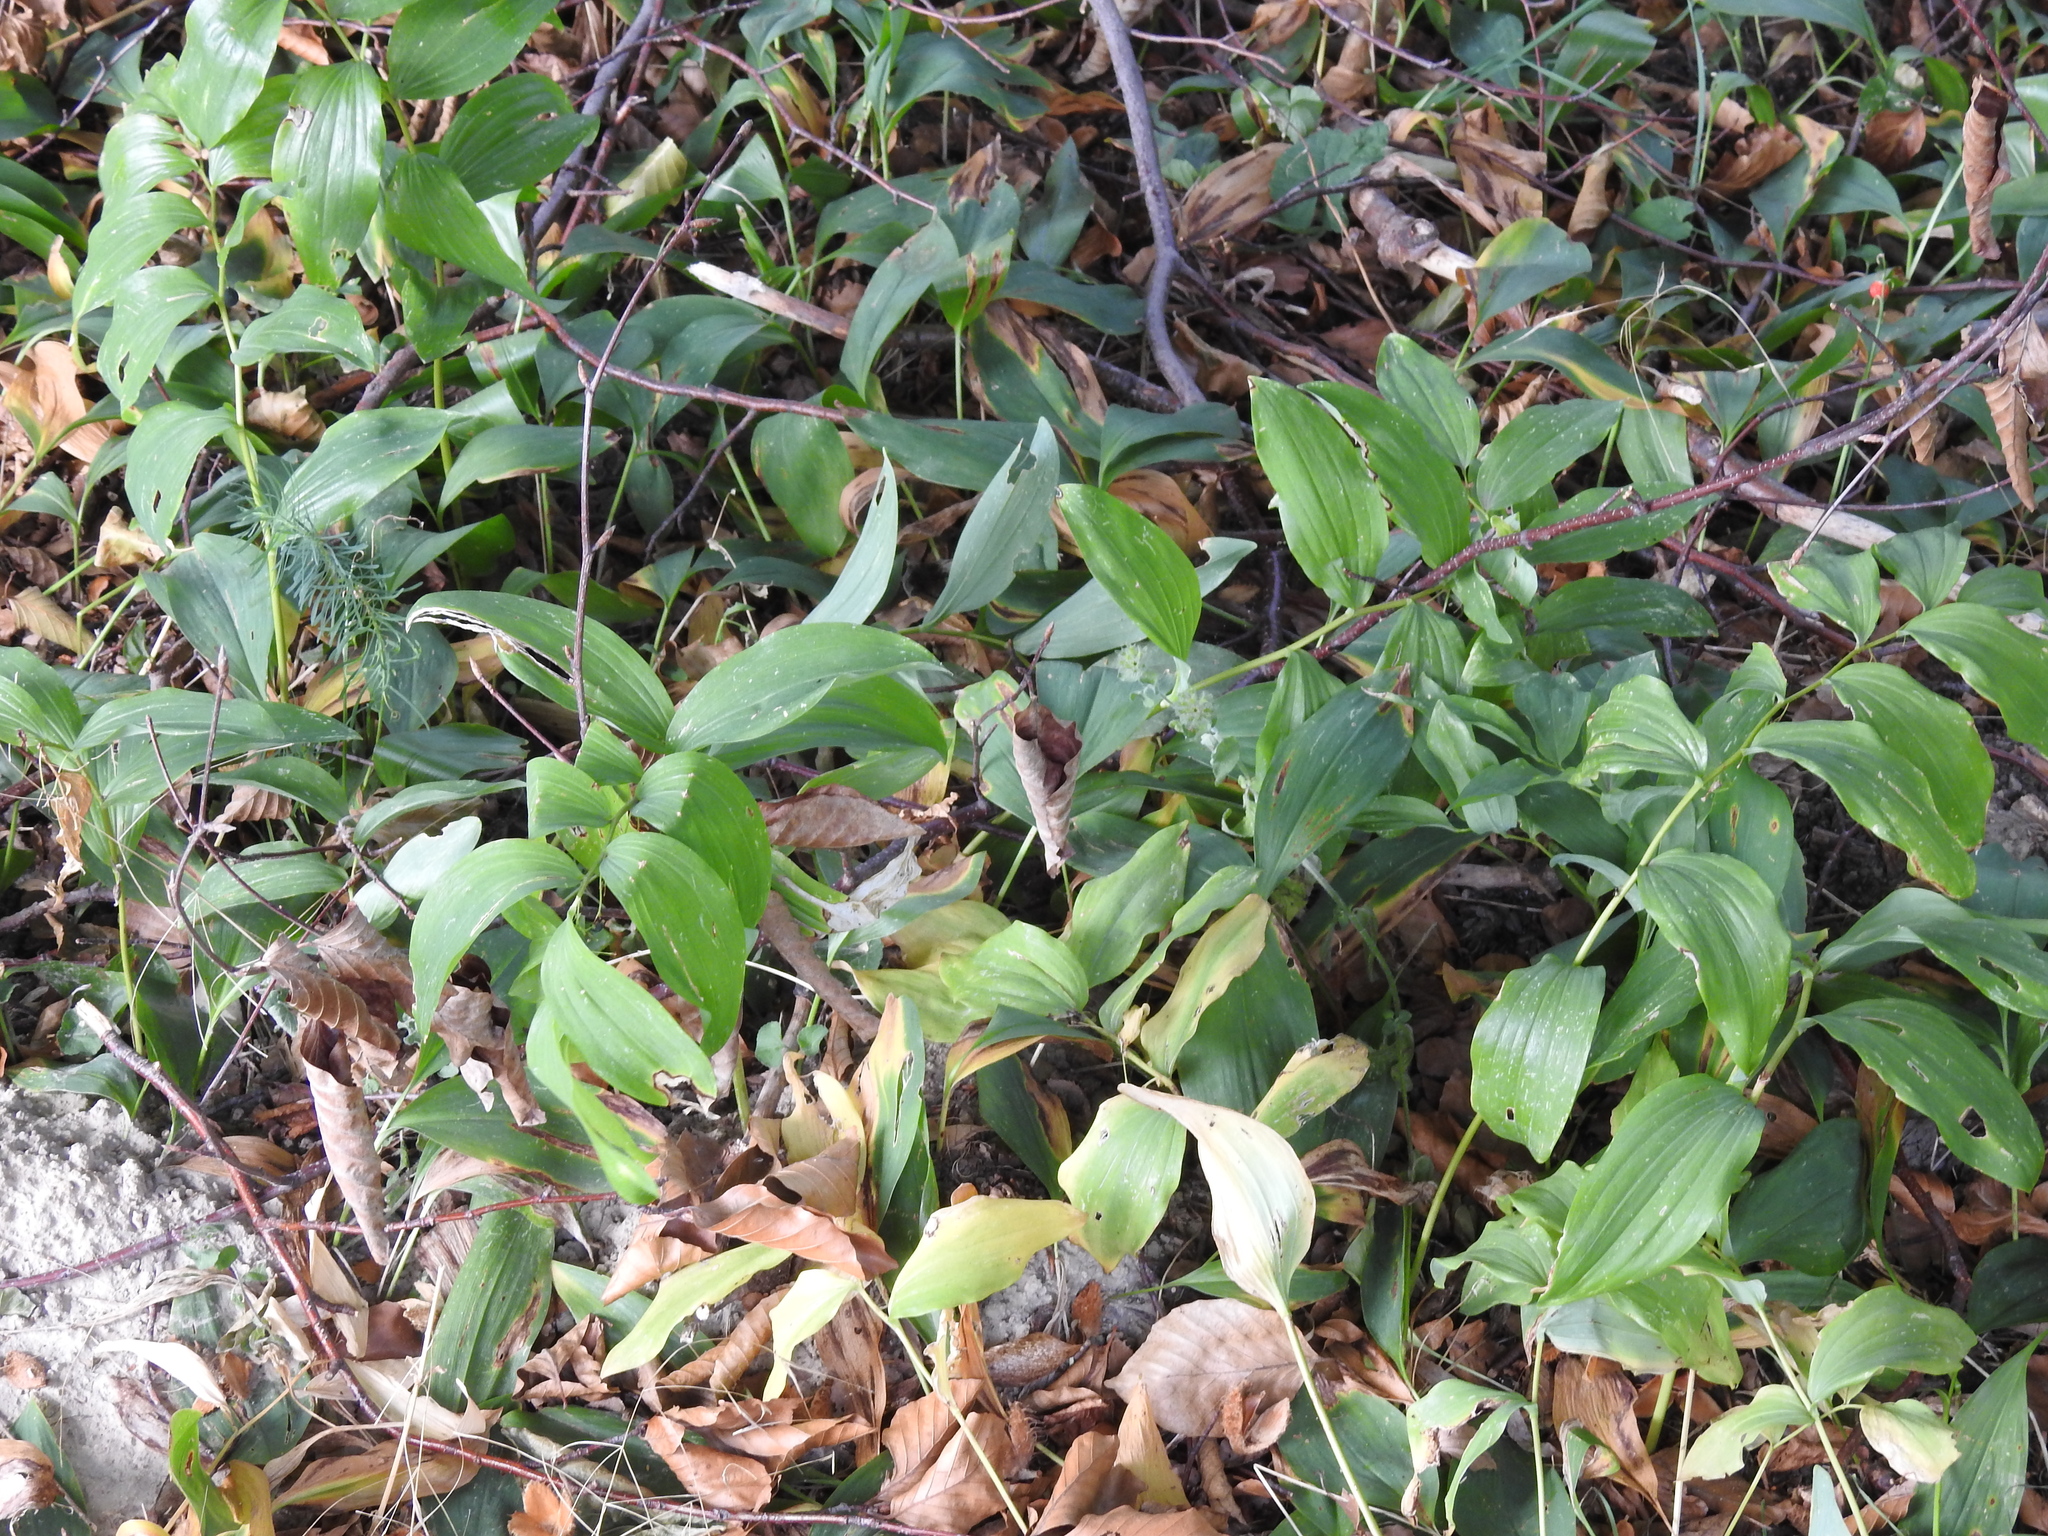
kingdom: Plantae
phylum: Tracheophyta
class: Liliopsida
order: Asparagales
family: Asparagaceae
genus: Polygonatum
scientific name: Polygonatum multiflorum
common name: Solomon's-seal
